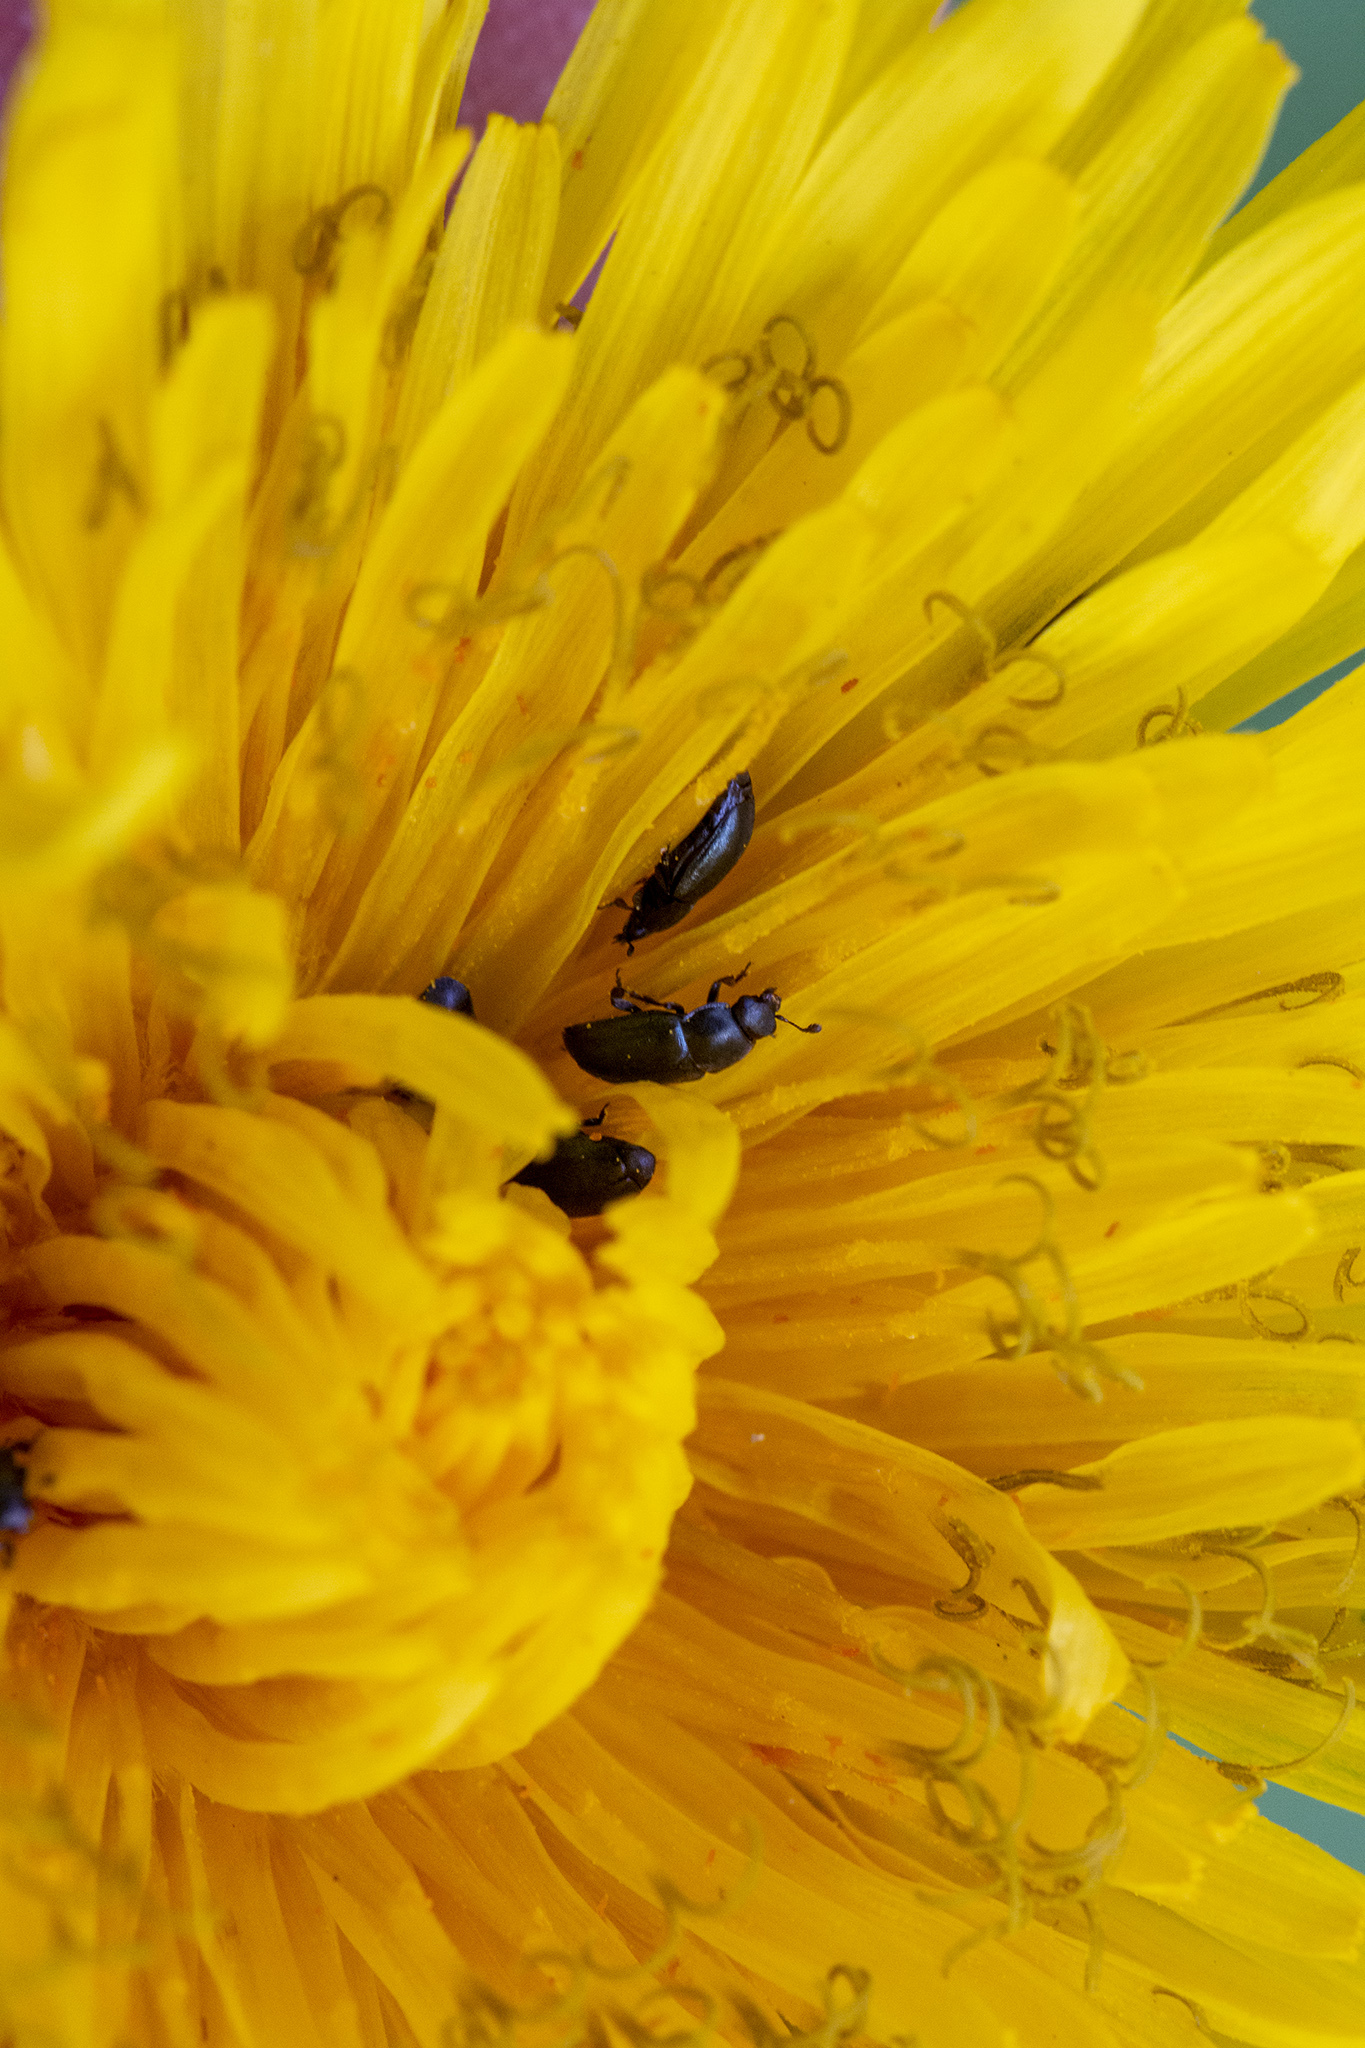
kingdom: Animalia
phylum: Arthropoda
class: Insecta
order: Coleoptera
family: Nitidulidae
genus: Brassicogethes
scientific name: Brassicogethes aeneus
